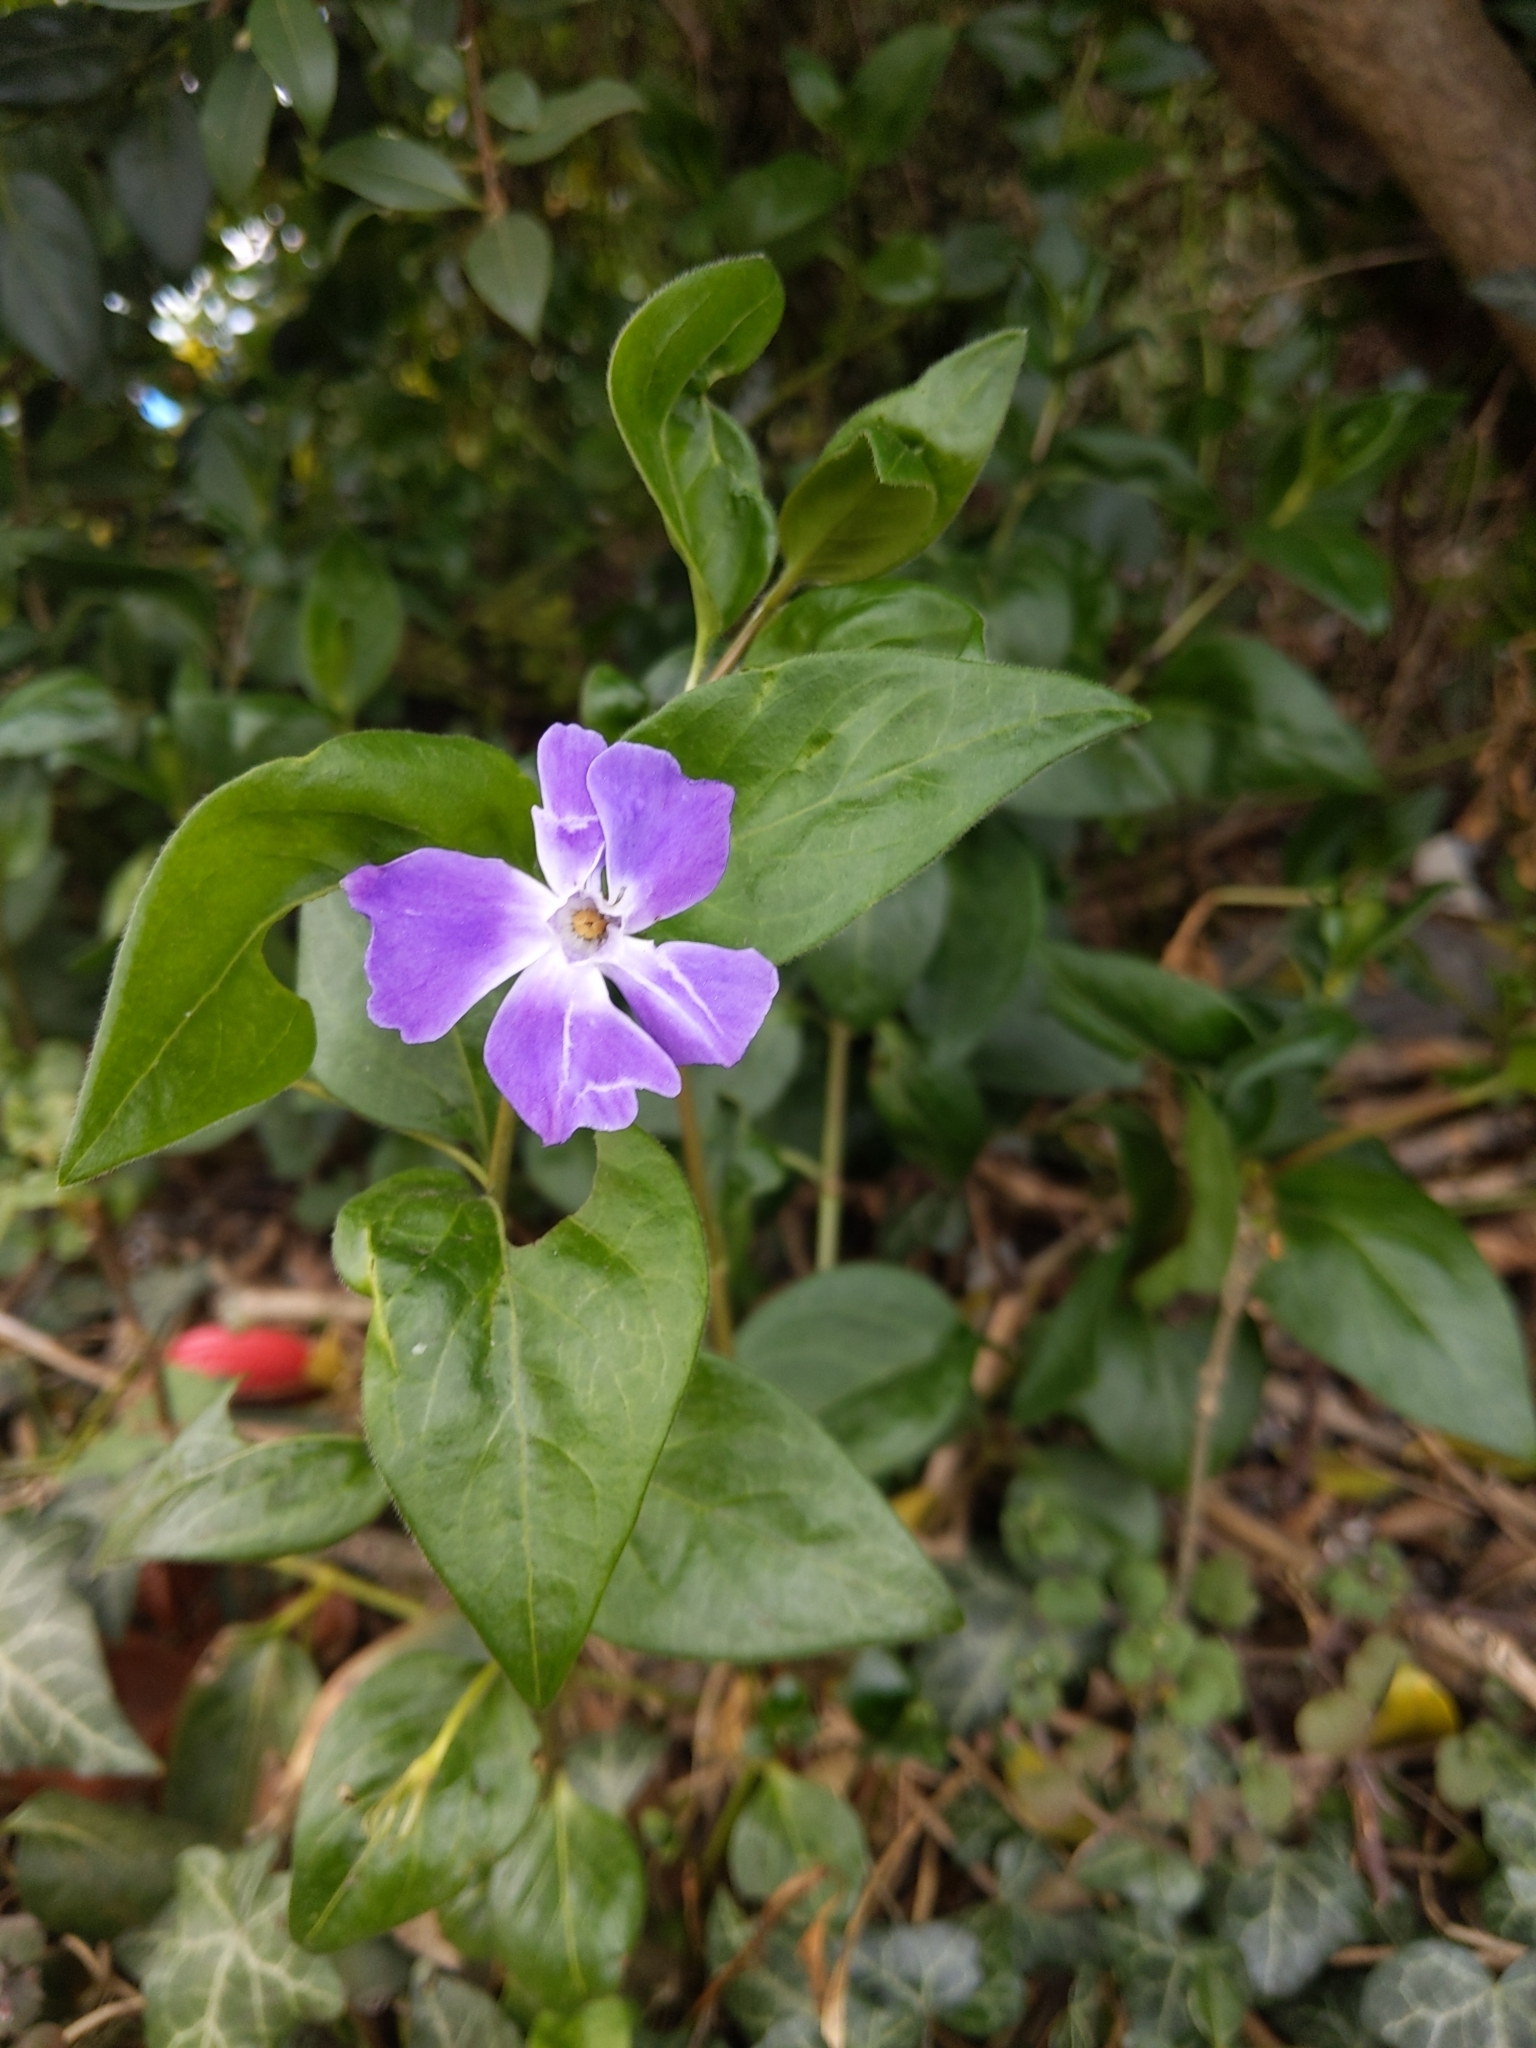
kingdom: Plantae
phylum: Tracheophyta
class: Magnoliopsida
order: Gentianales
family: Apocynaceae
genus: Vinca
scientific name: Vinca major
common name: Greater periwinkle
